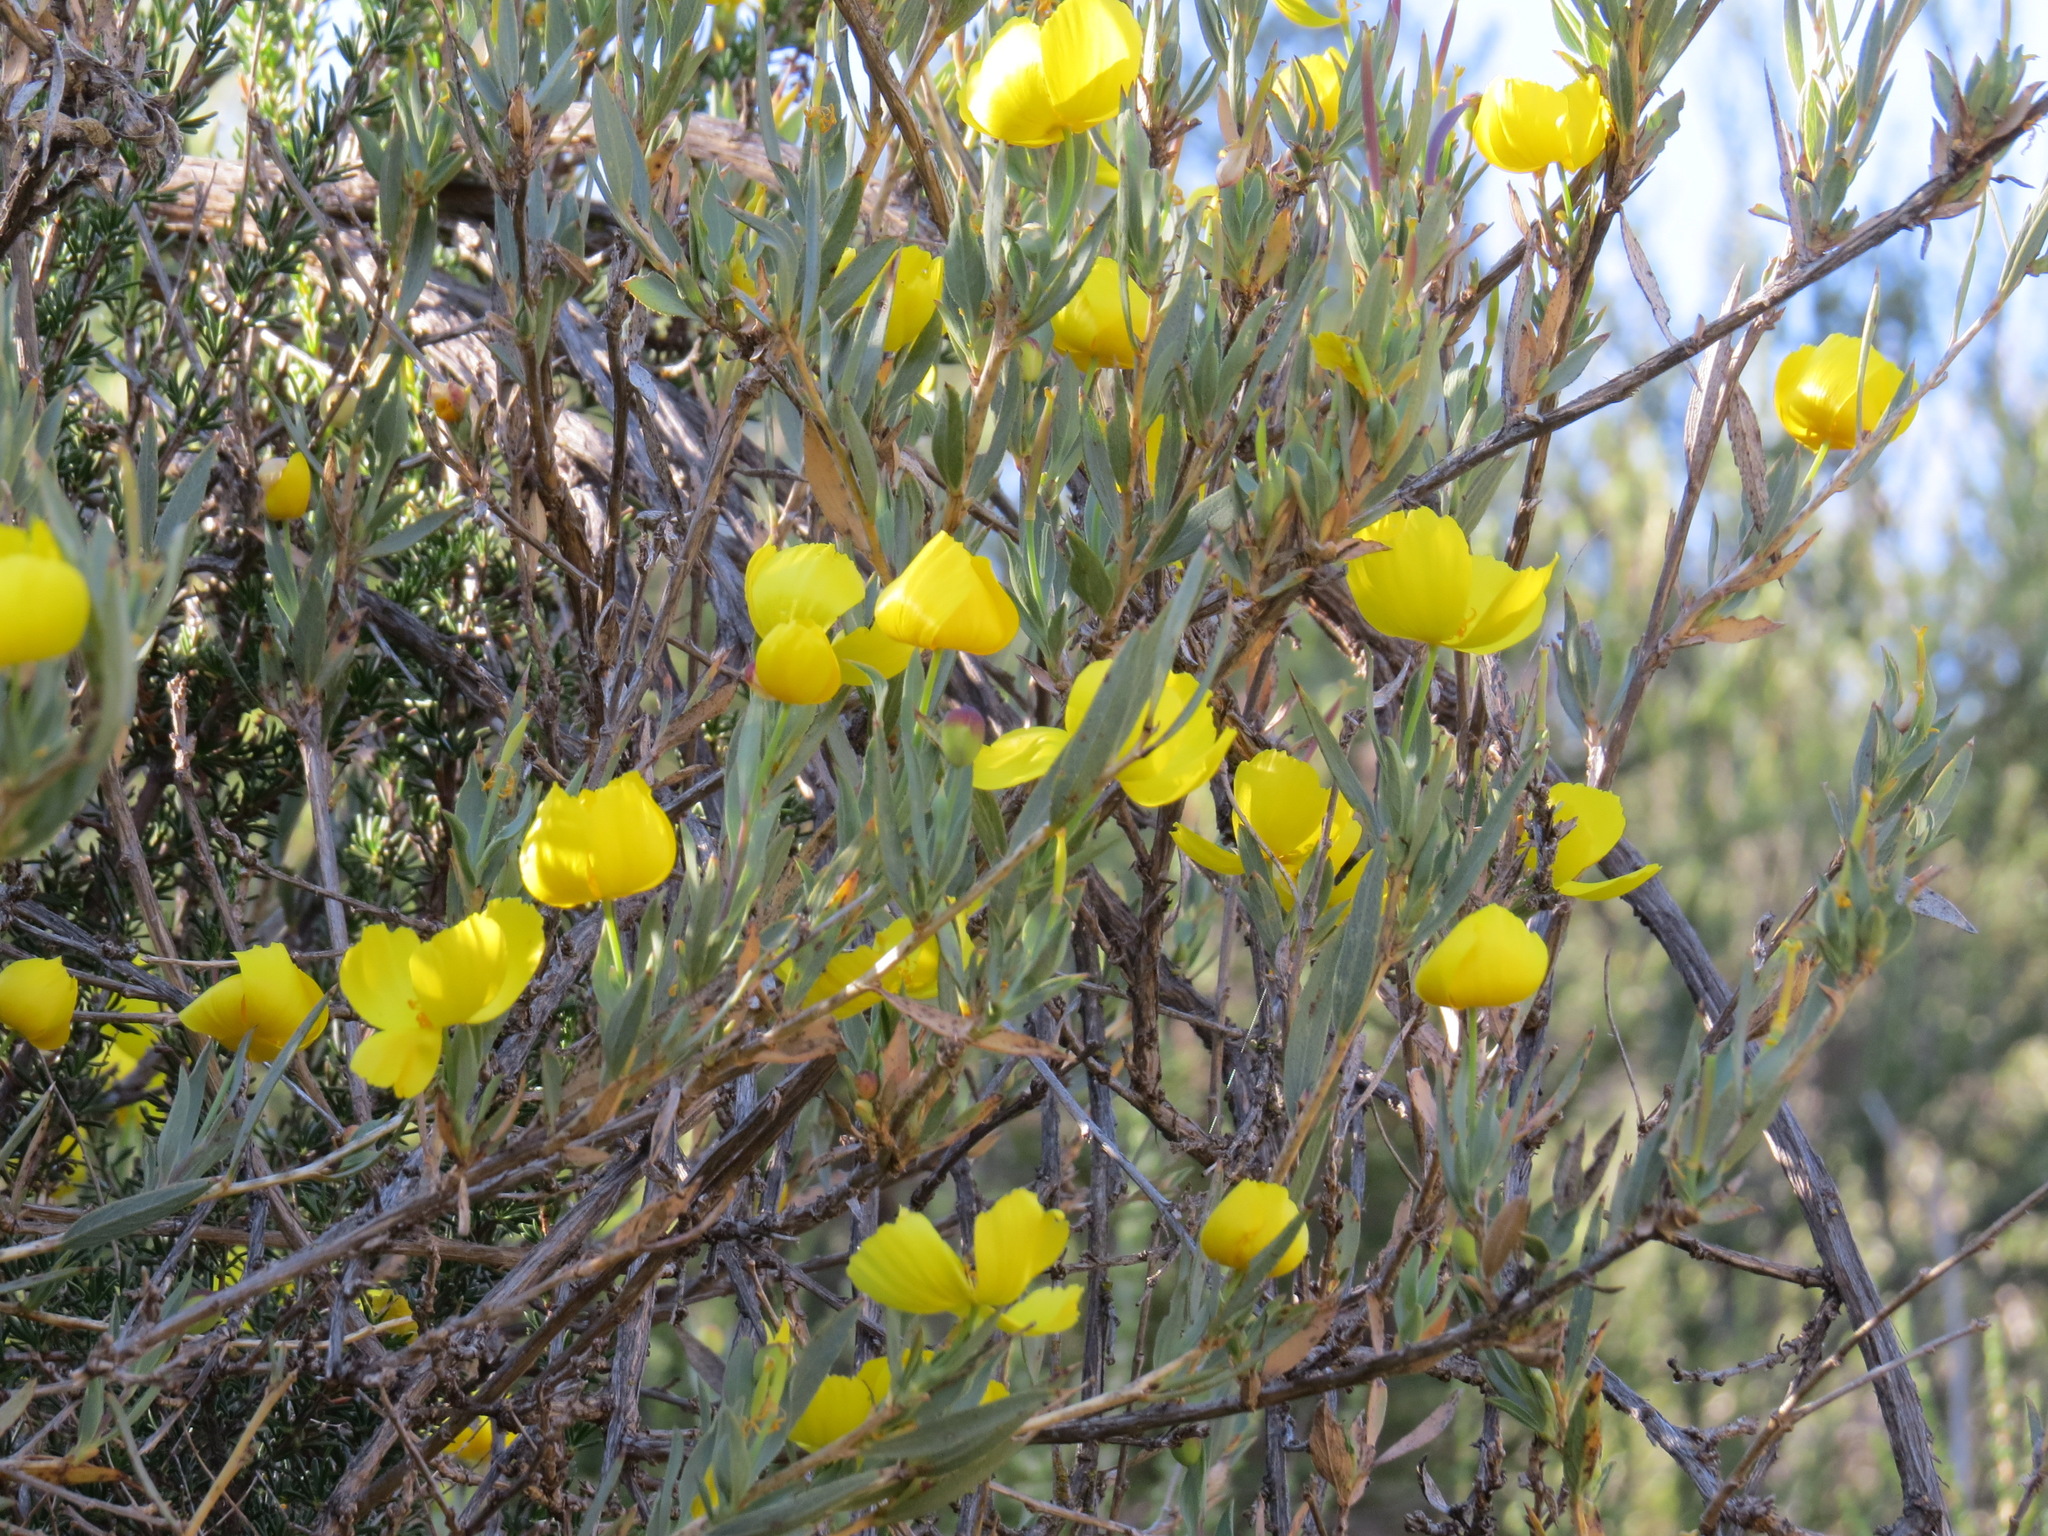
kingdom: Plantae
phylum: Tracheophyta
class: Magnoliopsida
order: Ranunculales
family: Papaveraceae
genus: Dendromecon
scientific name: Dendromecon rigida
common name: Tree poppy
